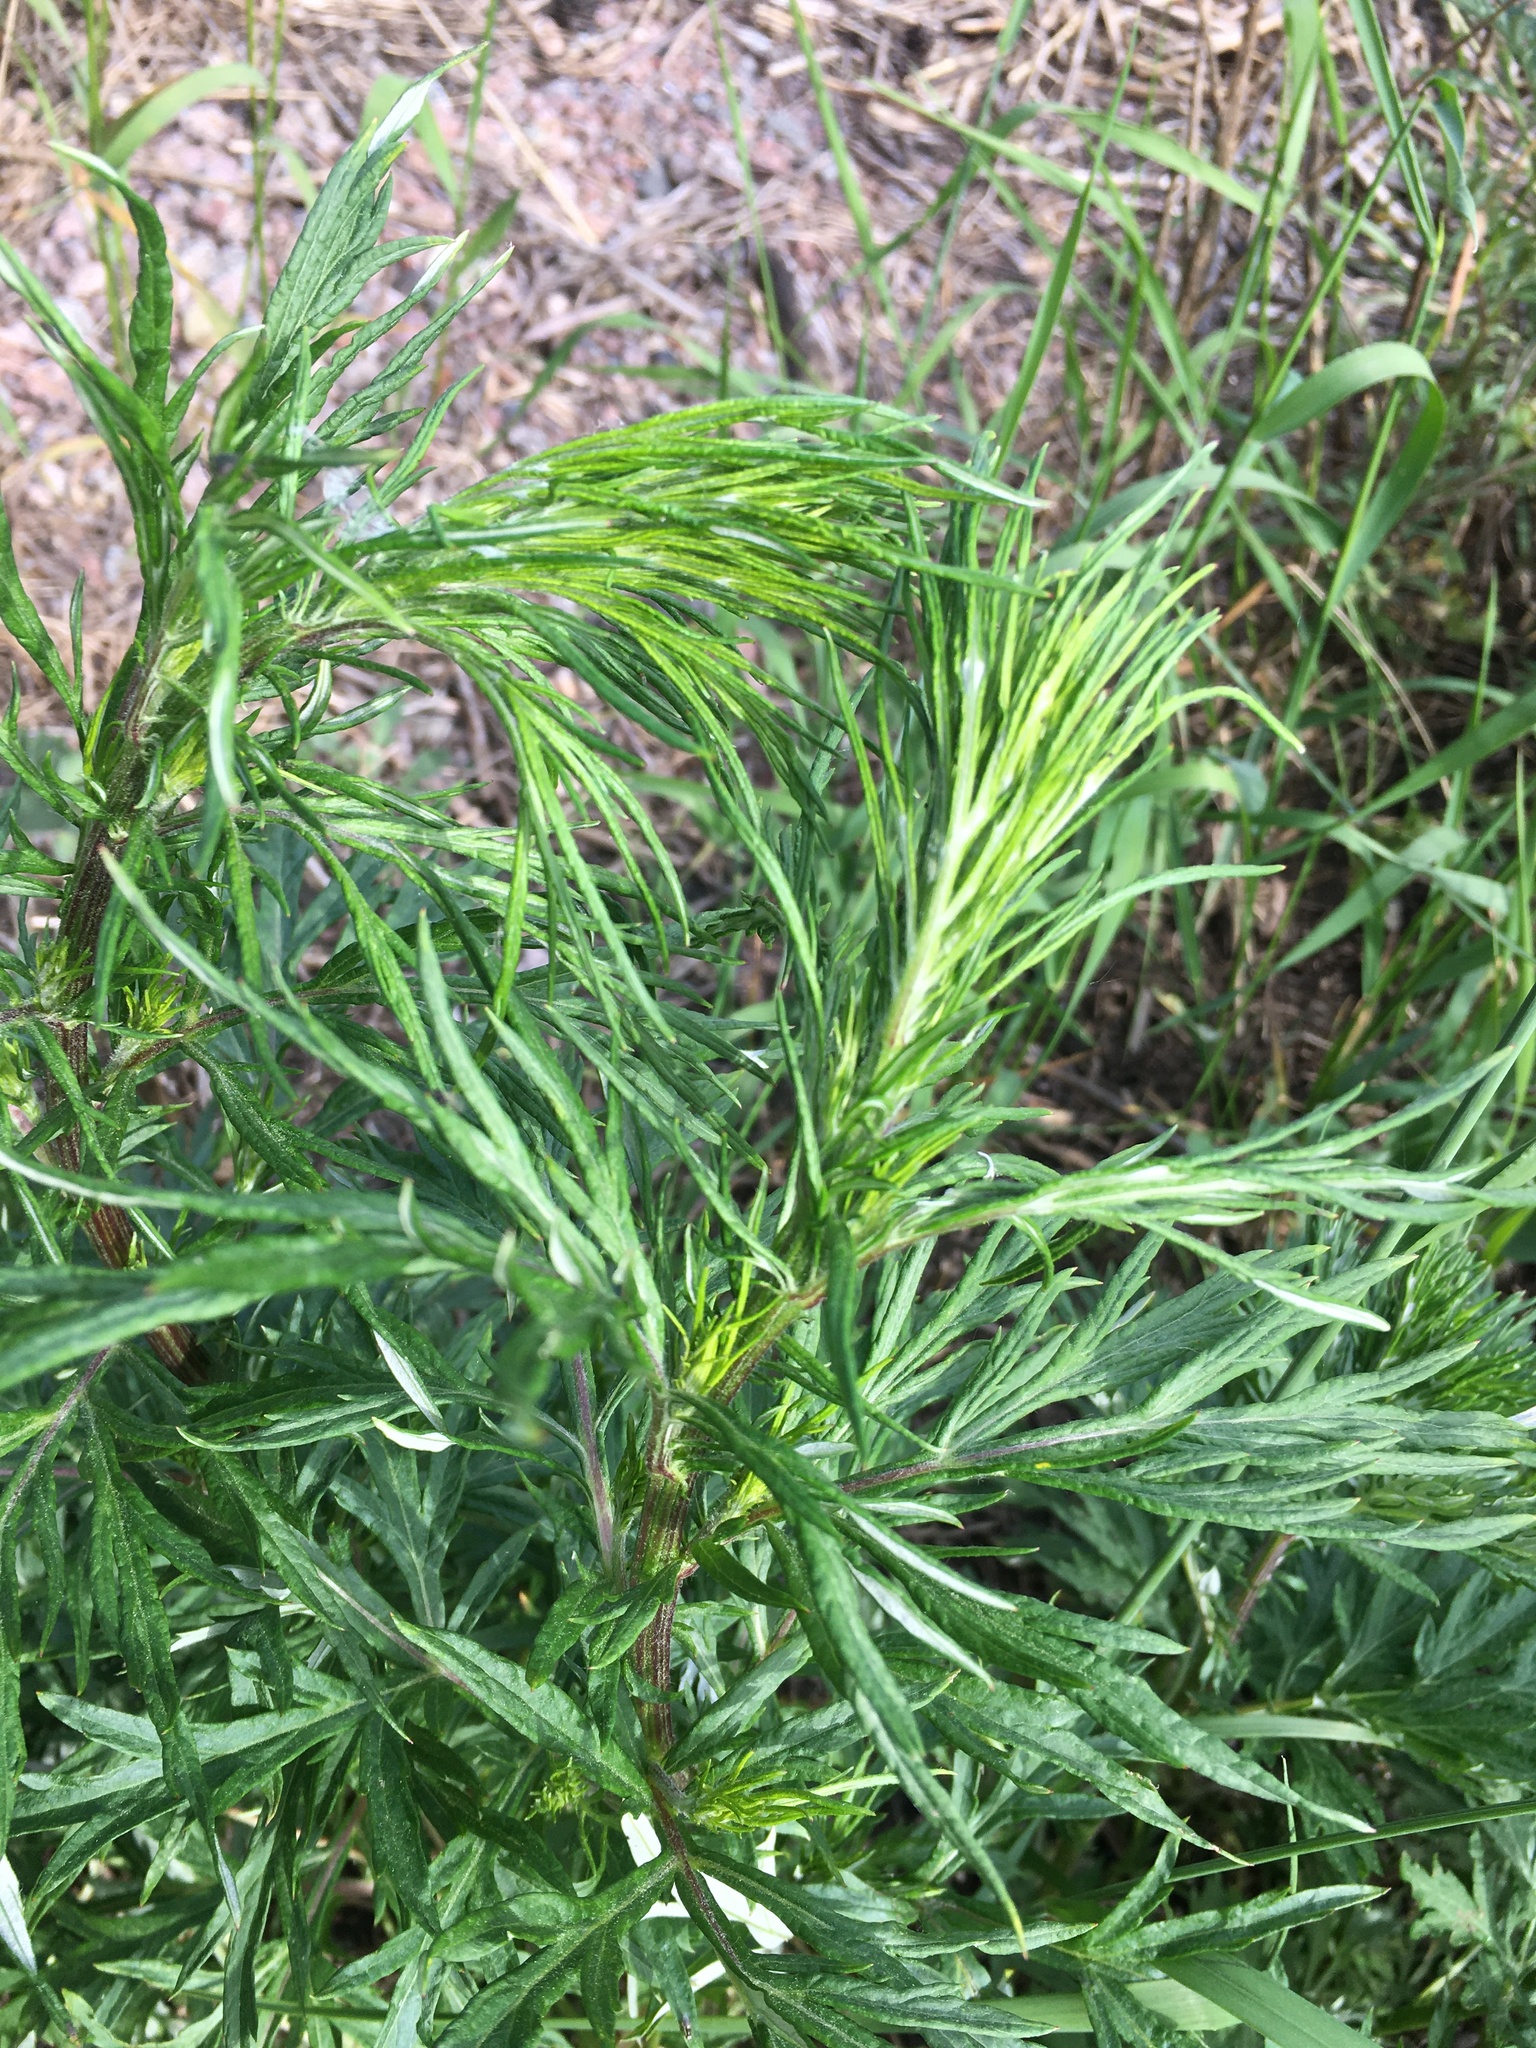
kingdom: Plantae
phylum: Tracheophyta
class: Magnoliopsida
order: Asterales
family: Asteraceae
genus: Artemisia
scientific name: Artemisia vulgaris
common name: Mugwort
